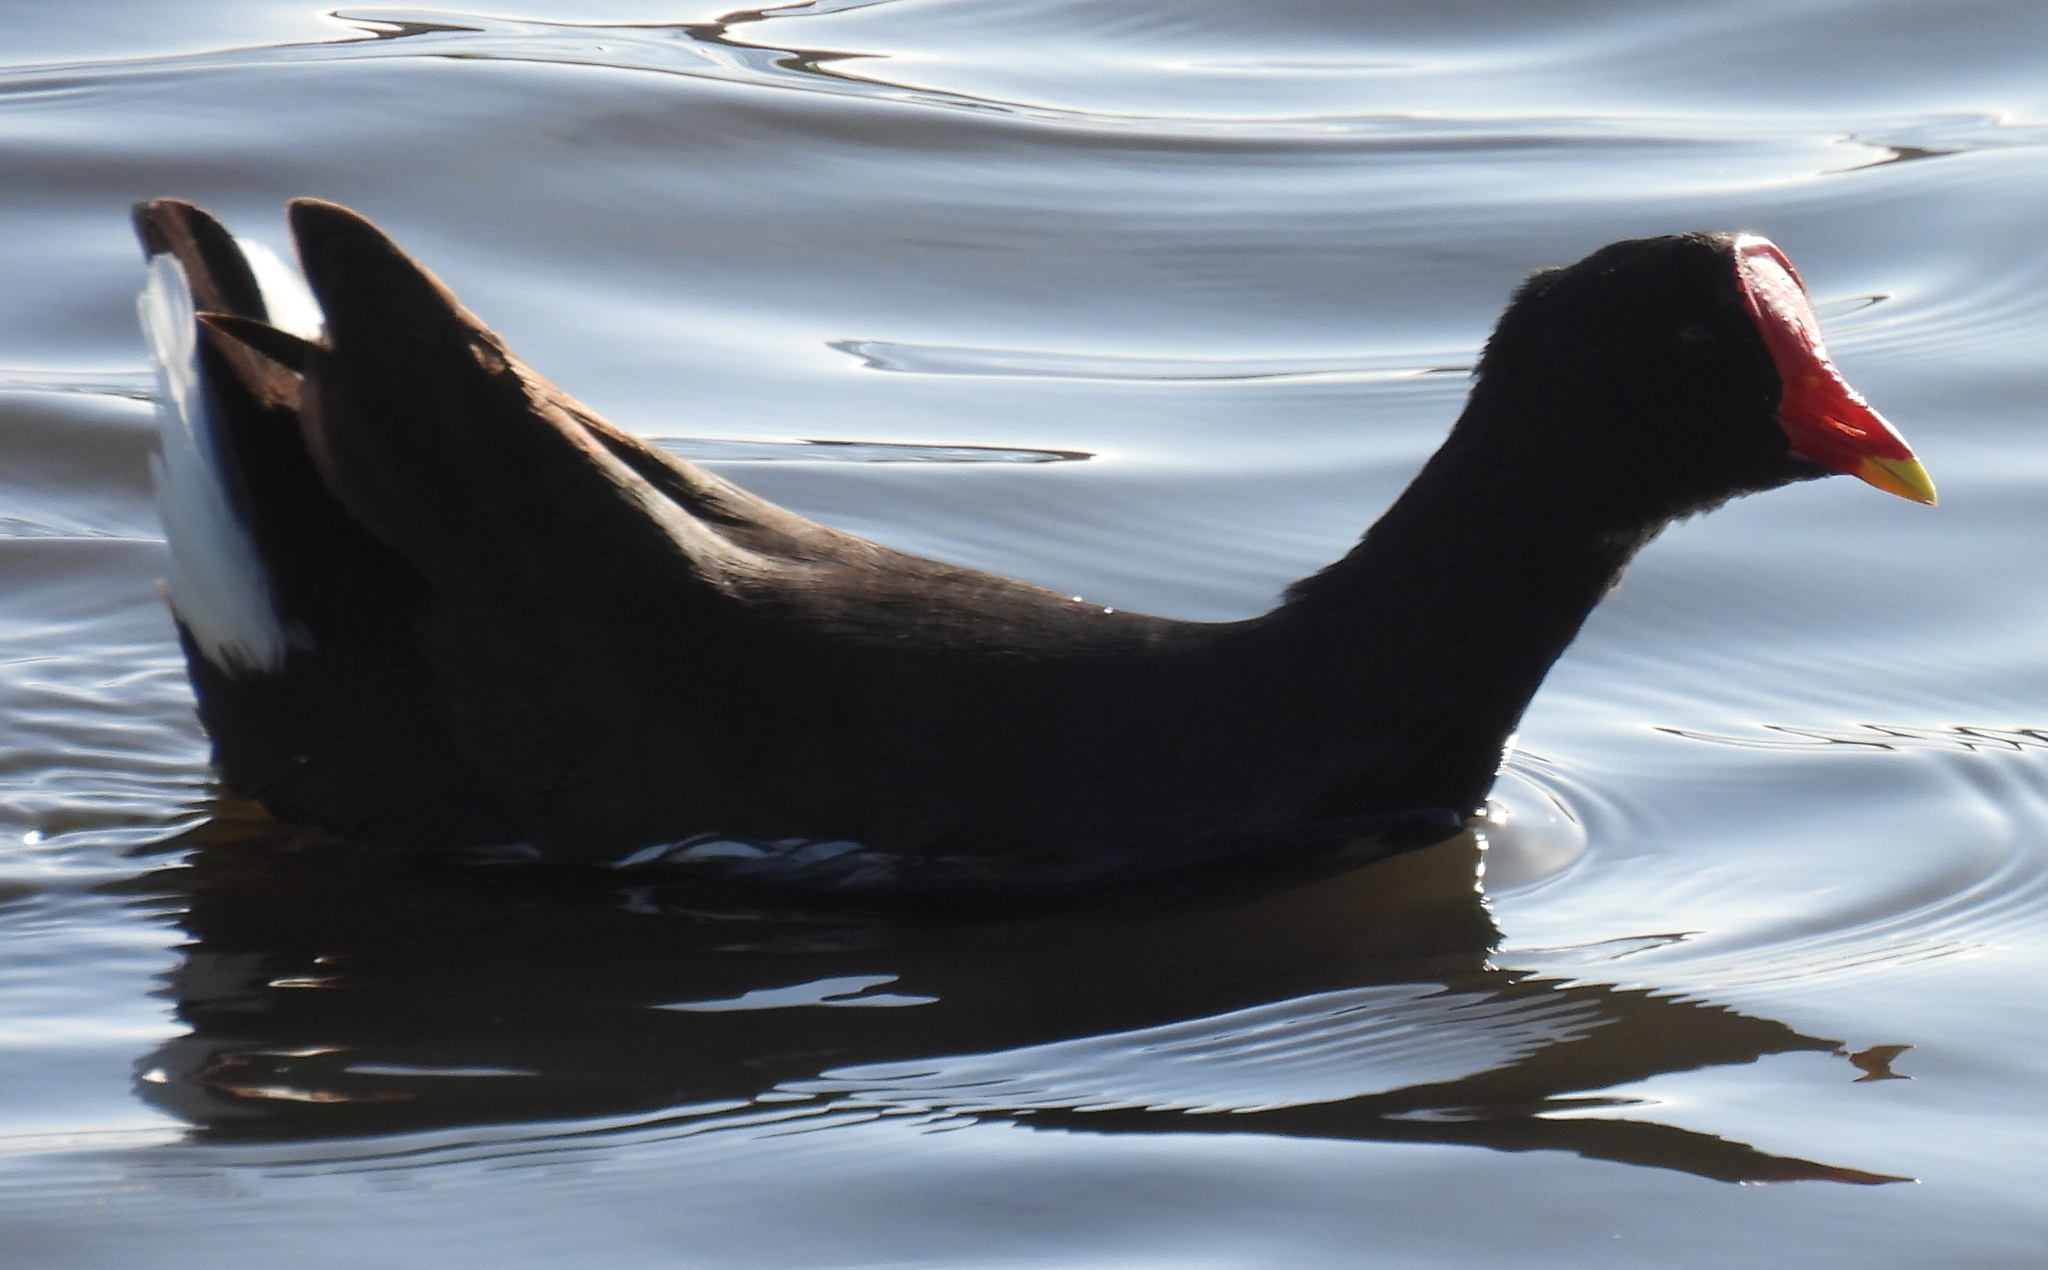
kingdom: Animalia
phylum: Chordata
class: Aves
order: Gruiformes
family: Rallidae
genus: Gallinula
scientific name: Gallinula chloropus
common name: Common moorhen
